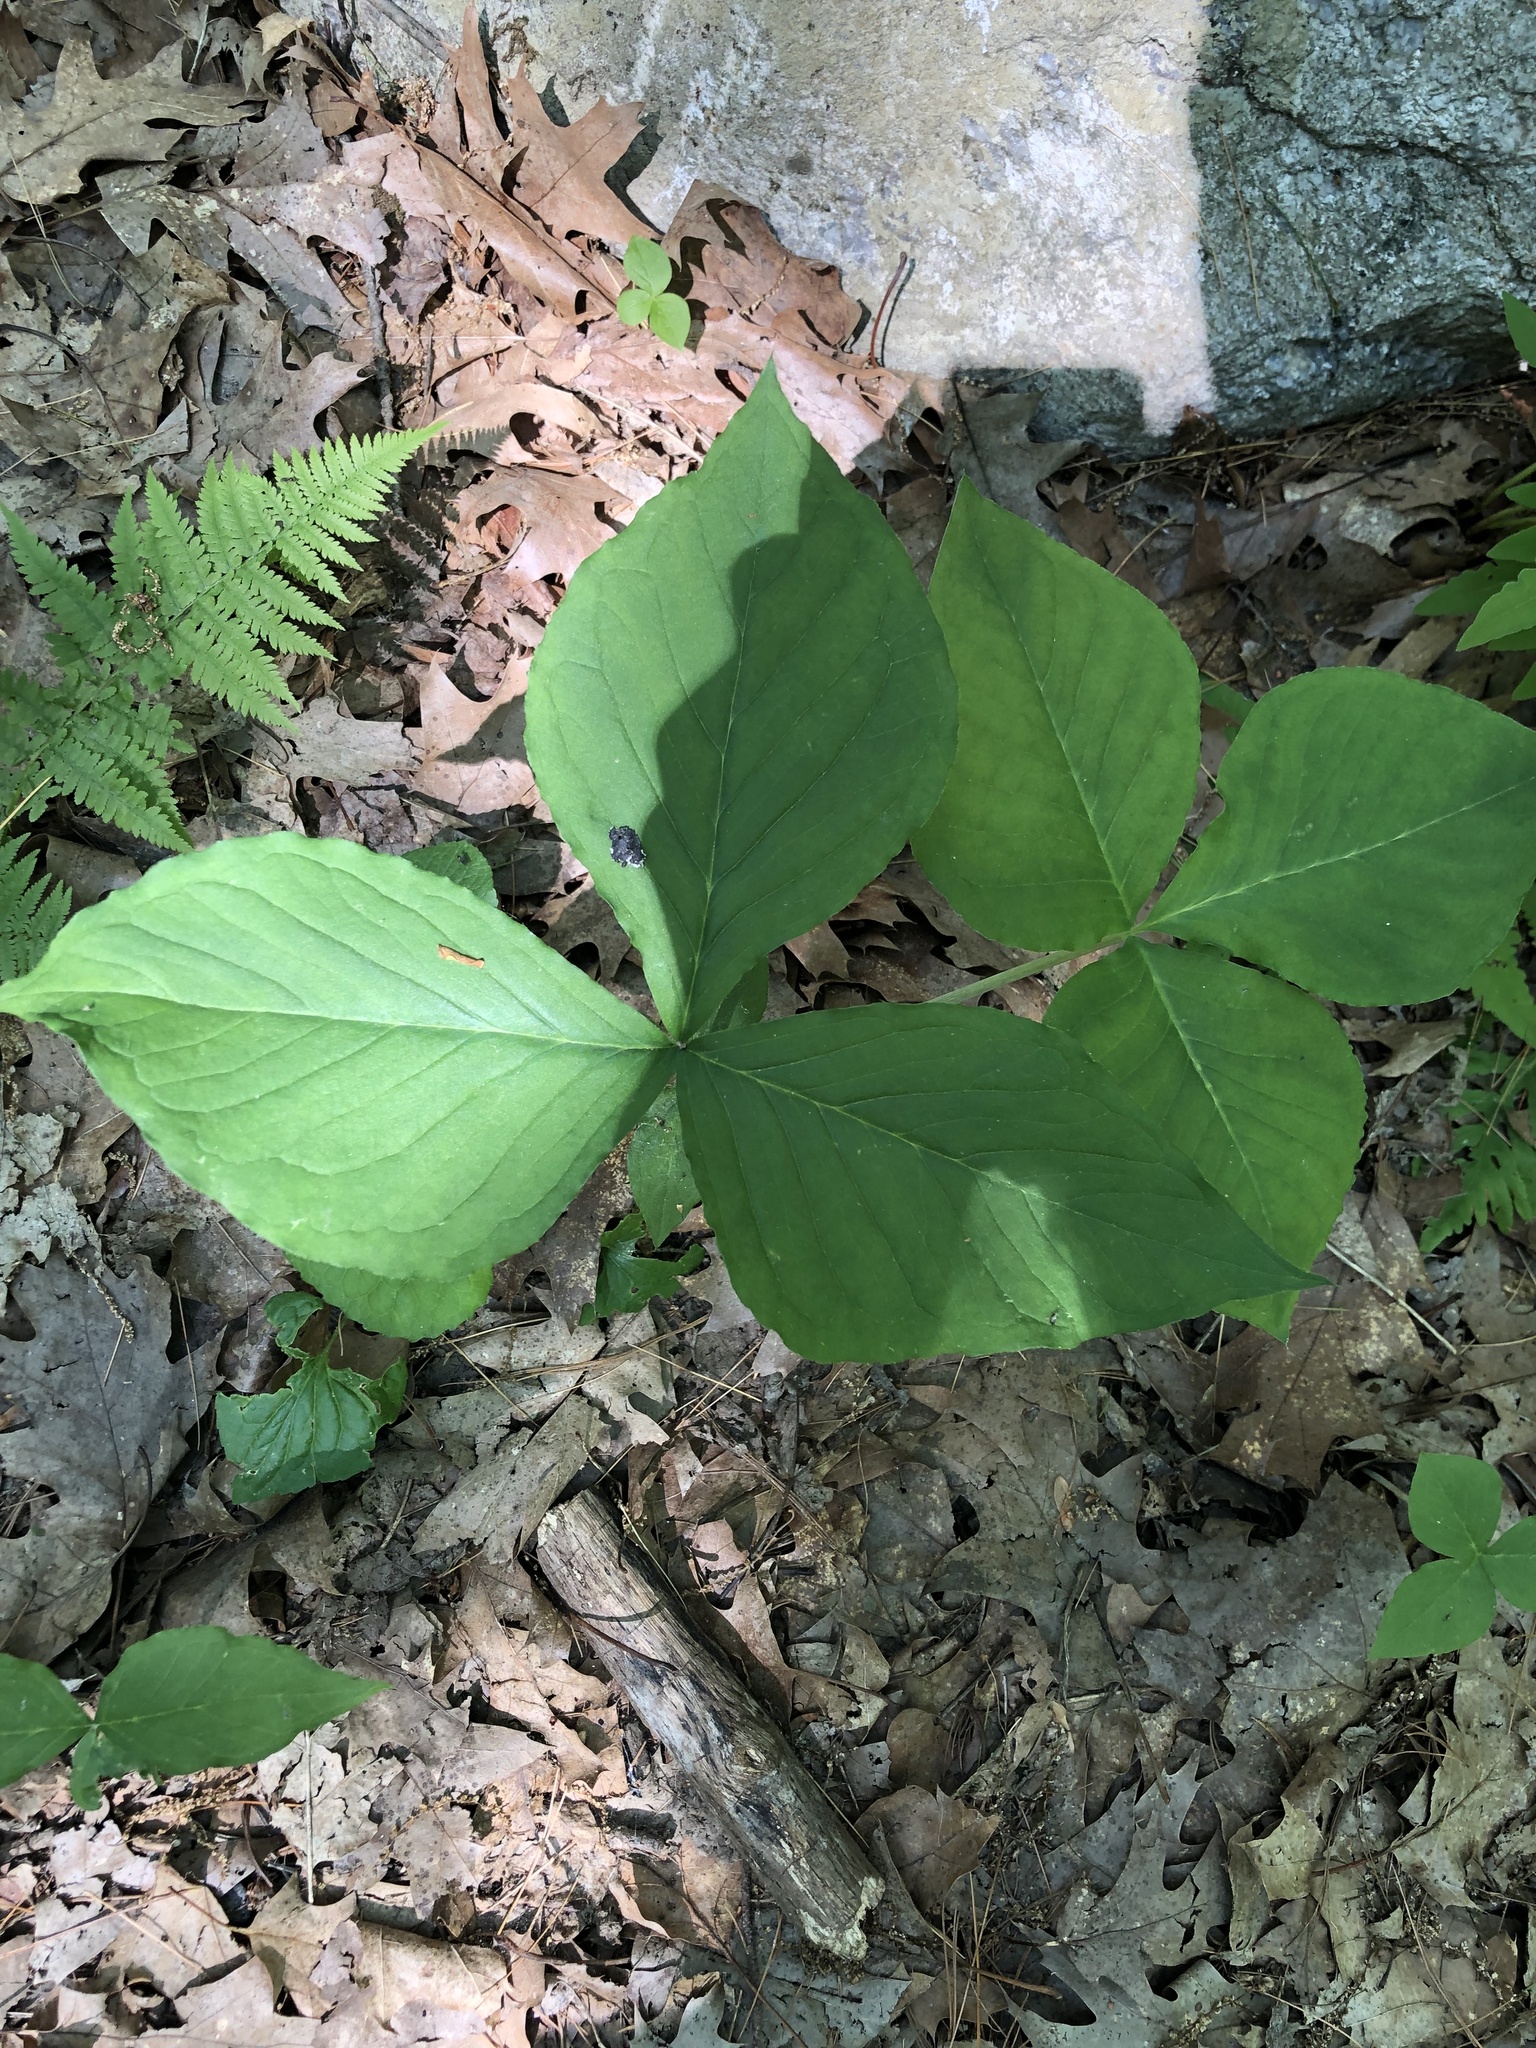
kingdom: Plantae
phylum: Tracheophyta
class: Liliopsida
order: Alismatales
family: Araceae
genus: Arisaema
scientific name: Arisaema triphyllum
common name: Jack-in-the-pulpit
